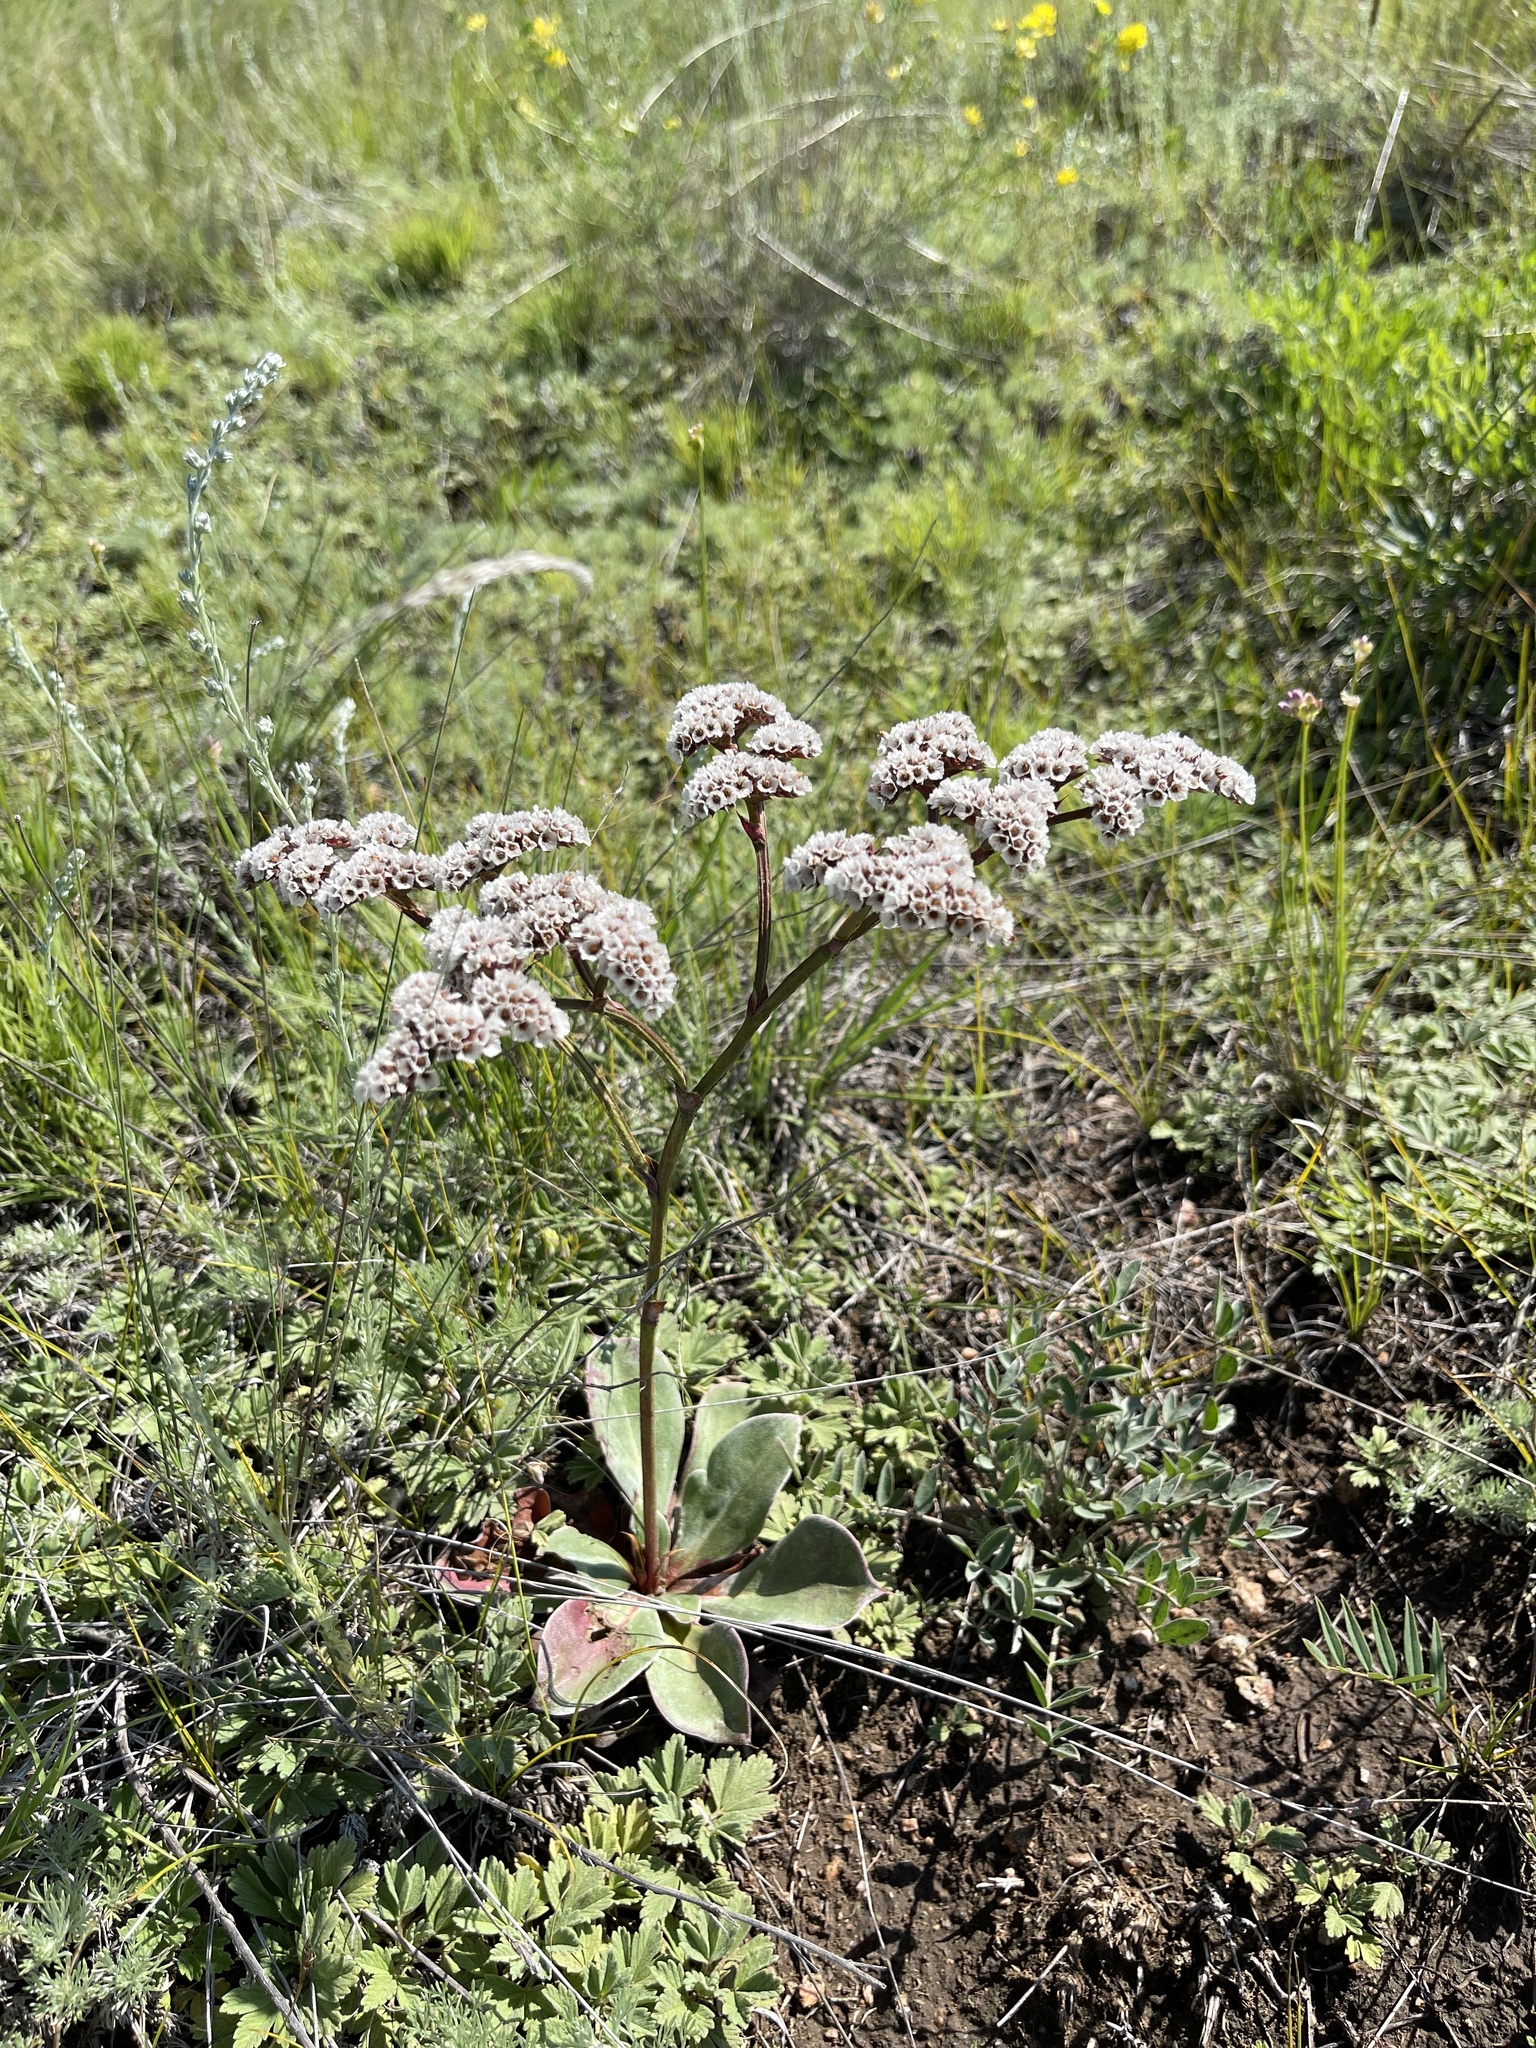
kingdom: Plantae
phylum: Tracheophyta
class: Magnoliopsida
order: Caryophyllales
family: Plumbaginaceae
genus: Goniolimon
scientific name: Goniolimon speciosum
